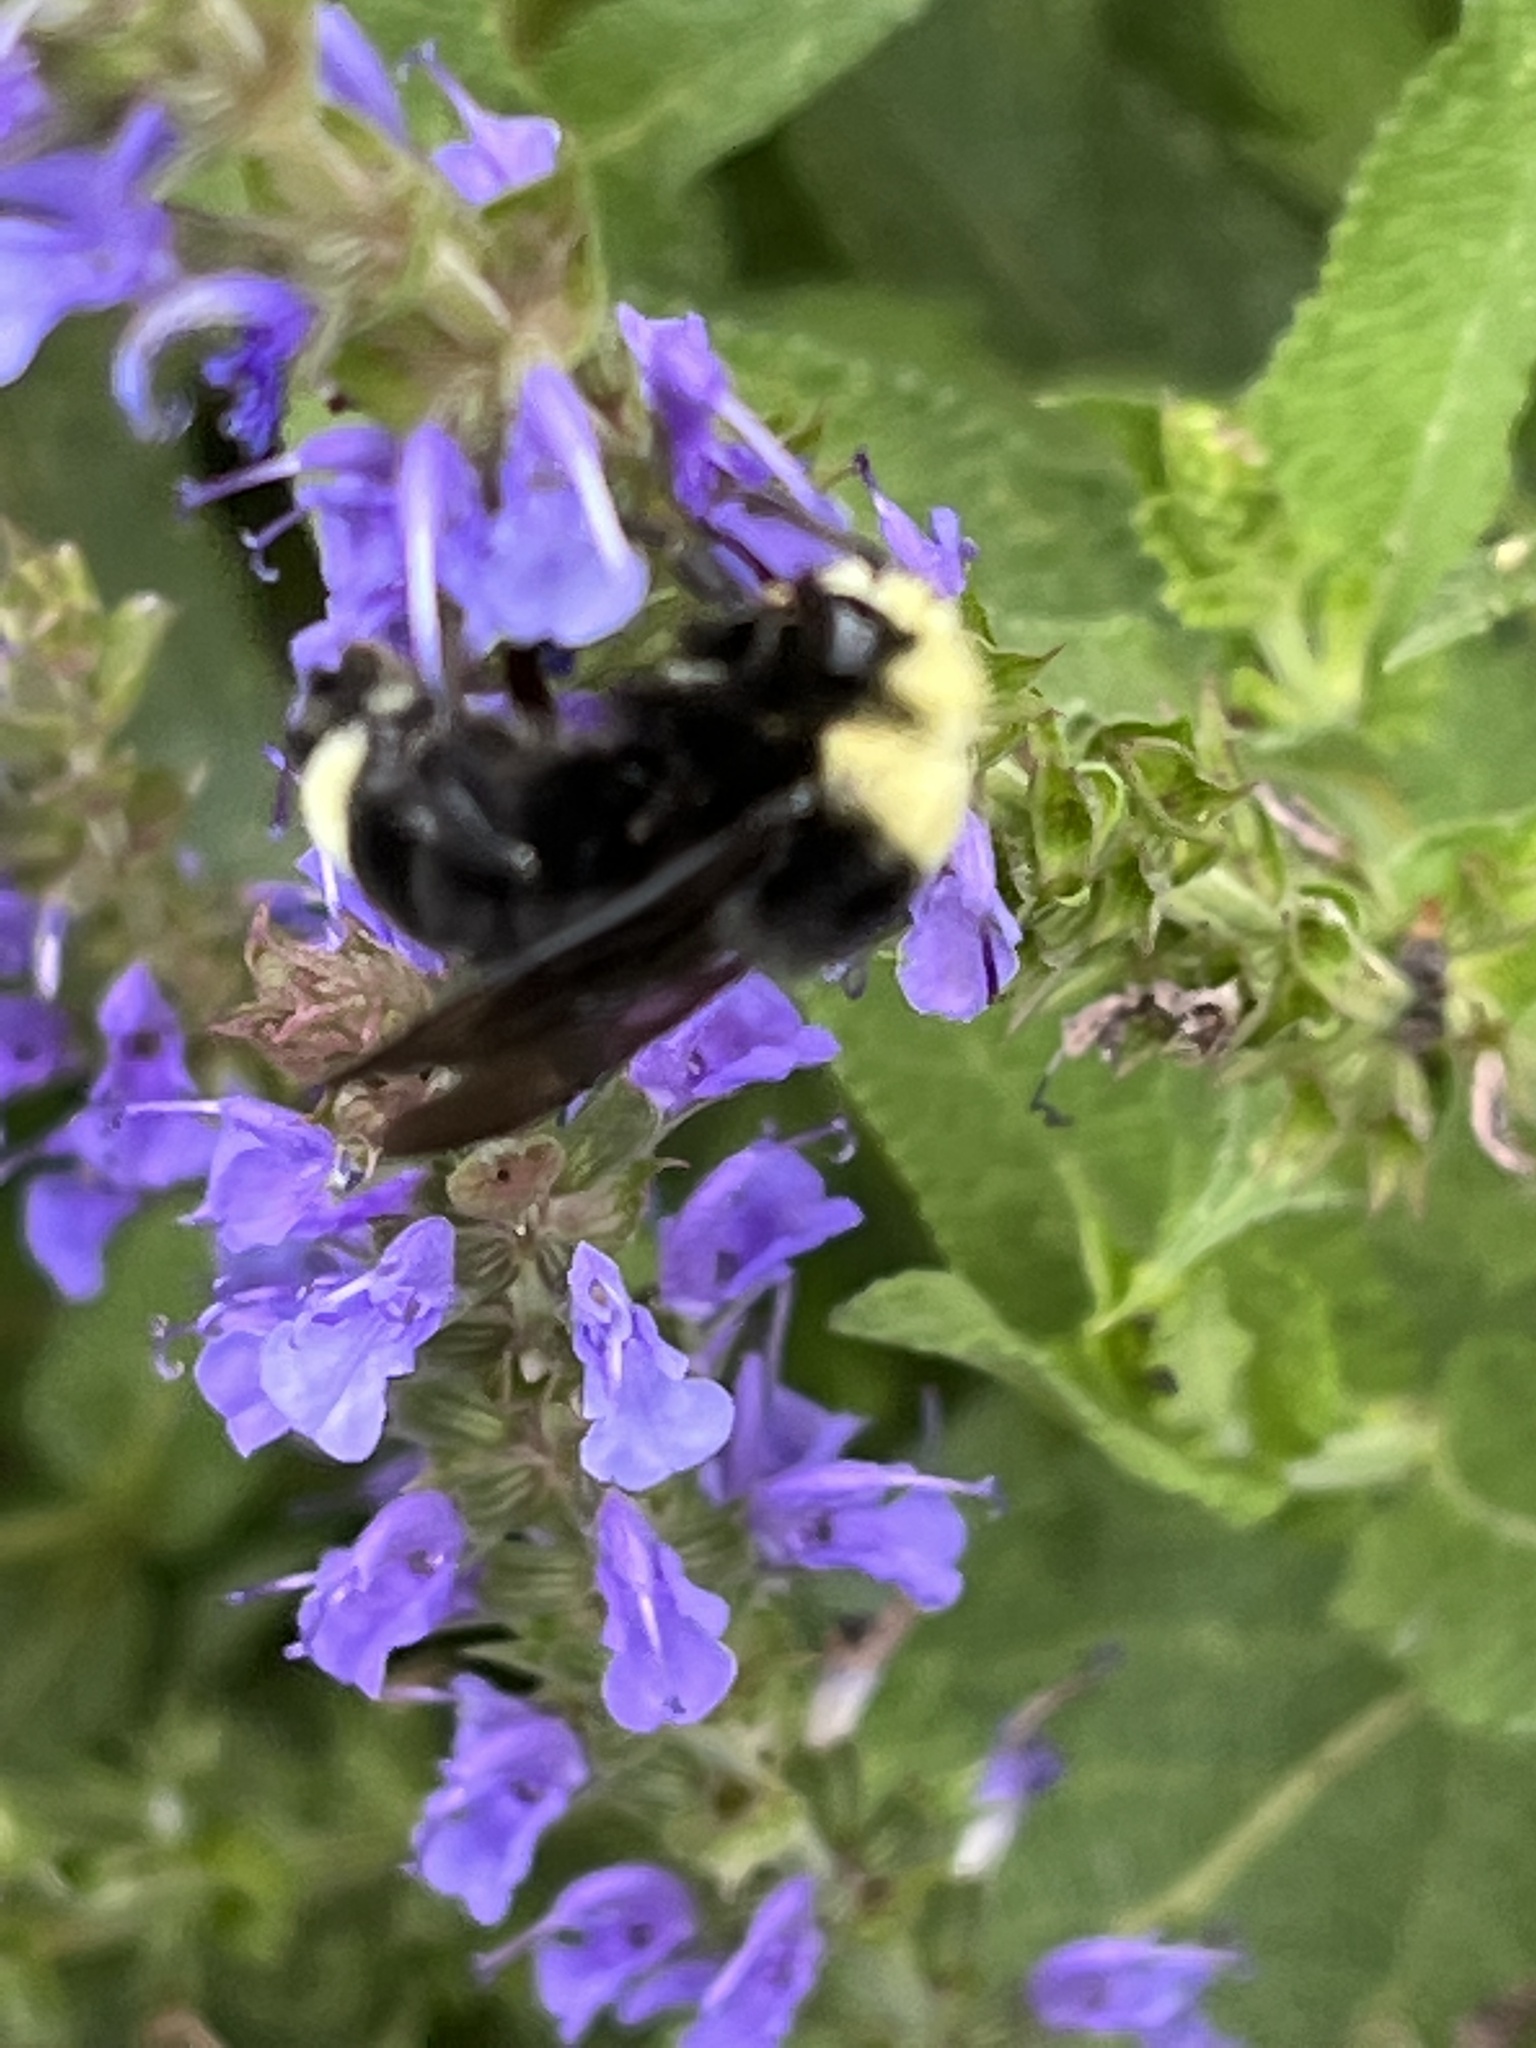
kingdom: Animalia
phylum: Arthropoda
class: Insecta
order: Hymenoptera
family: Apidae
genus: Bombus
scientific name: Bombus vosnesenskii
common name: Vosnesensky bumble bee
